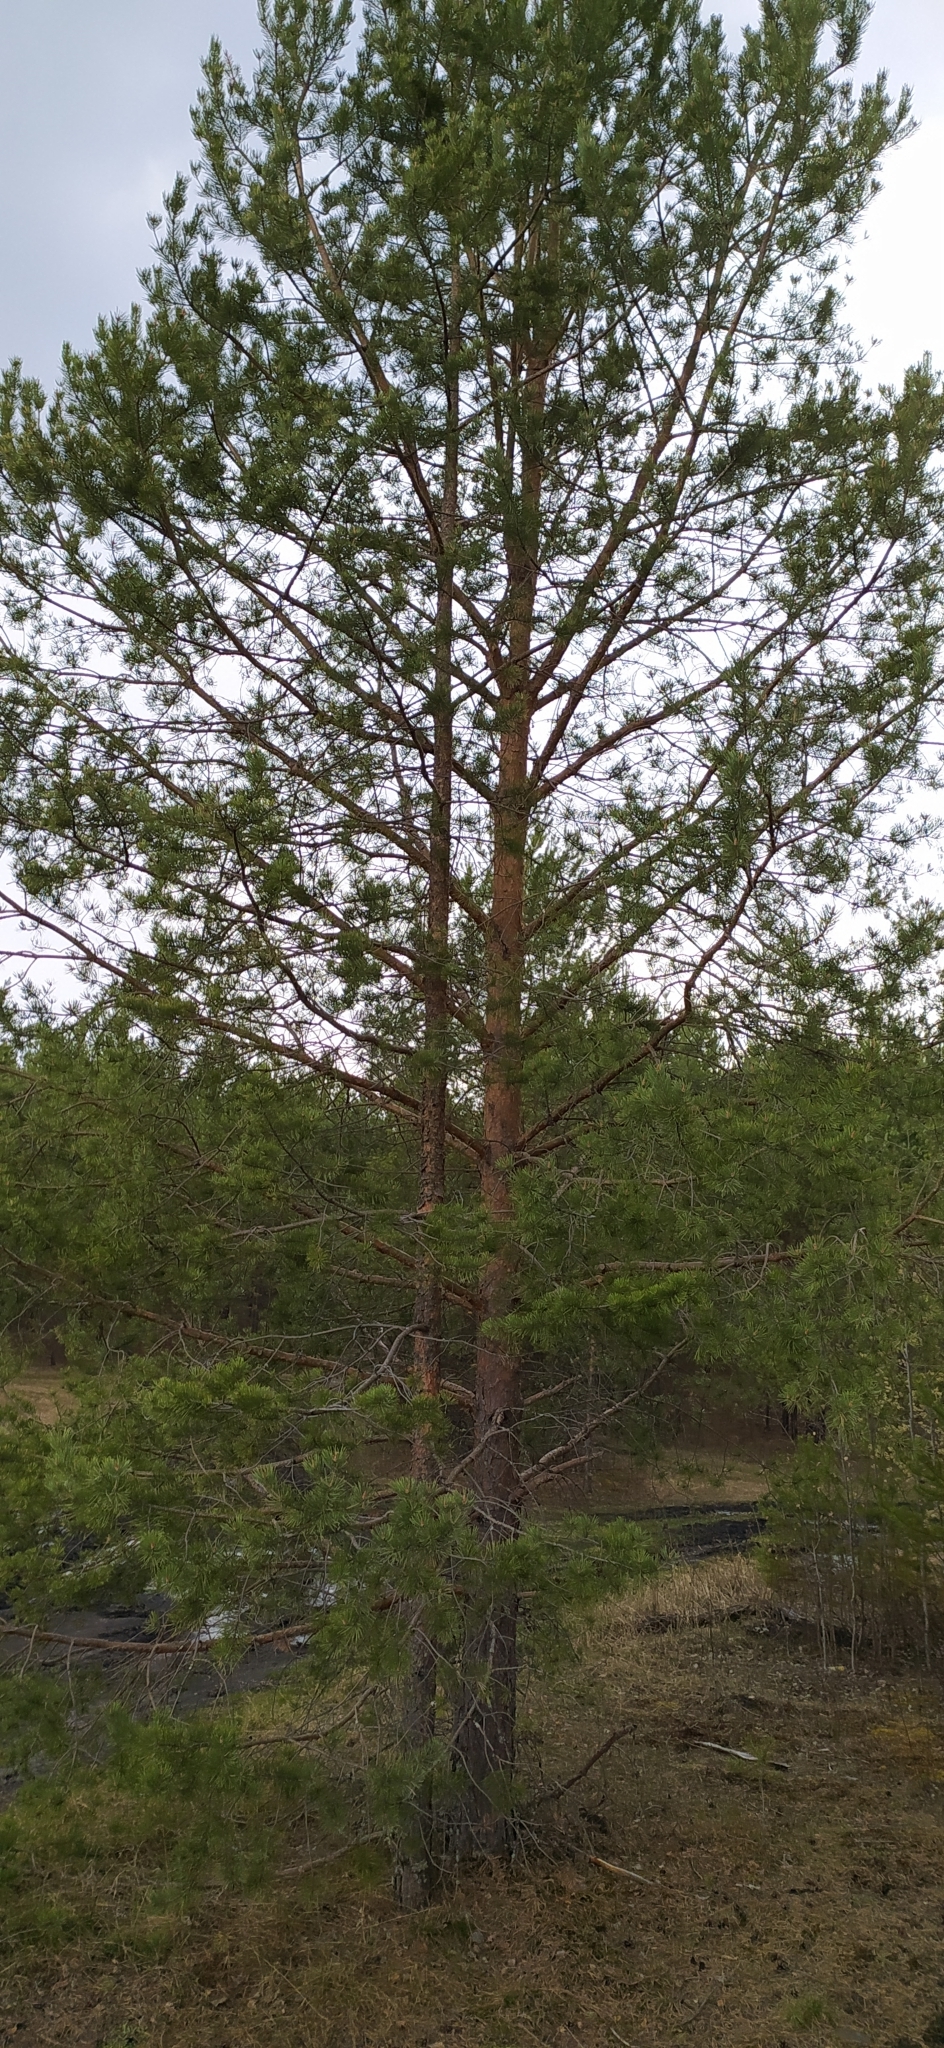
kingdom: Plantae
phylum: Tracheophyta
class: Pinopsida
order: Pinales
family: Pinaceae
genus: Pinus
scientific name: Pinus sylvestris
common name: Scots pine
